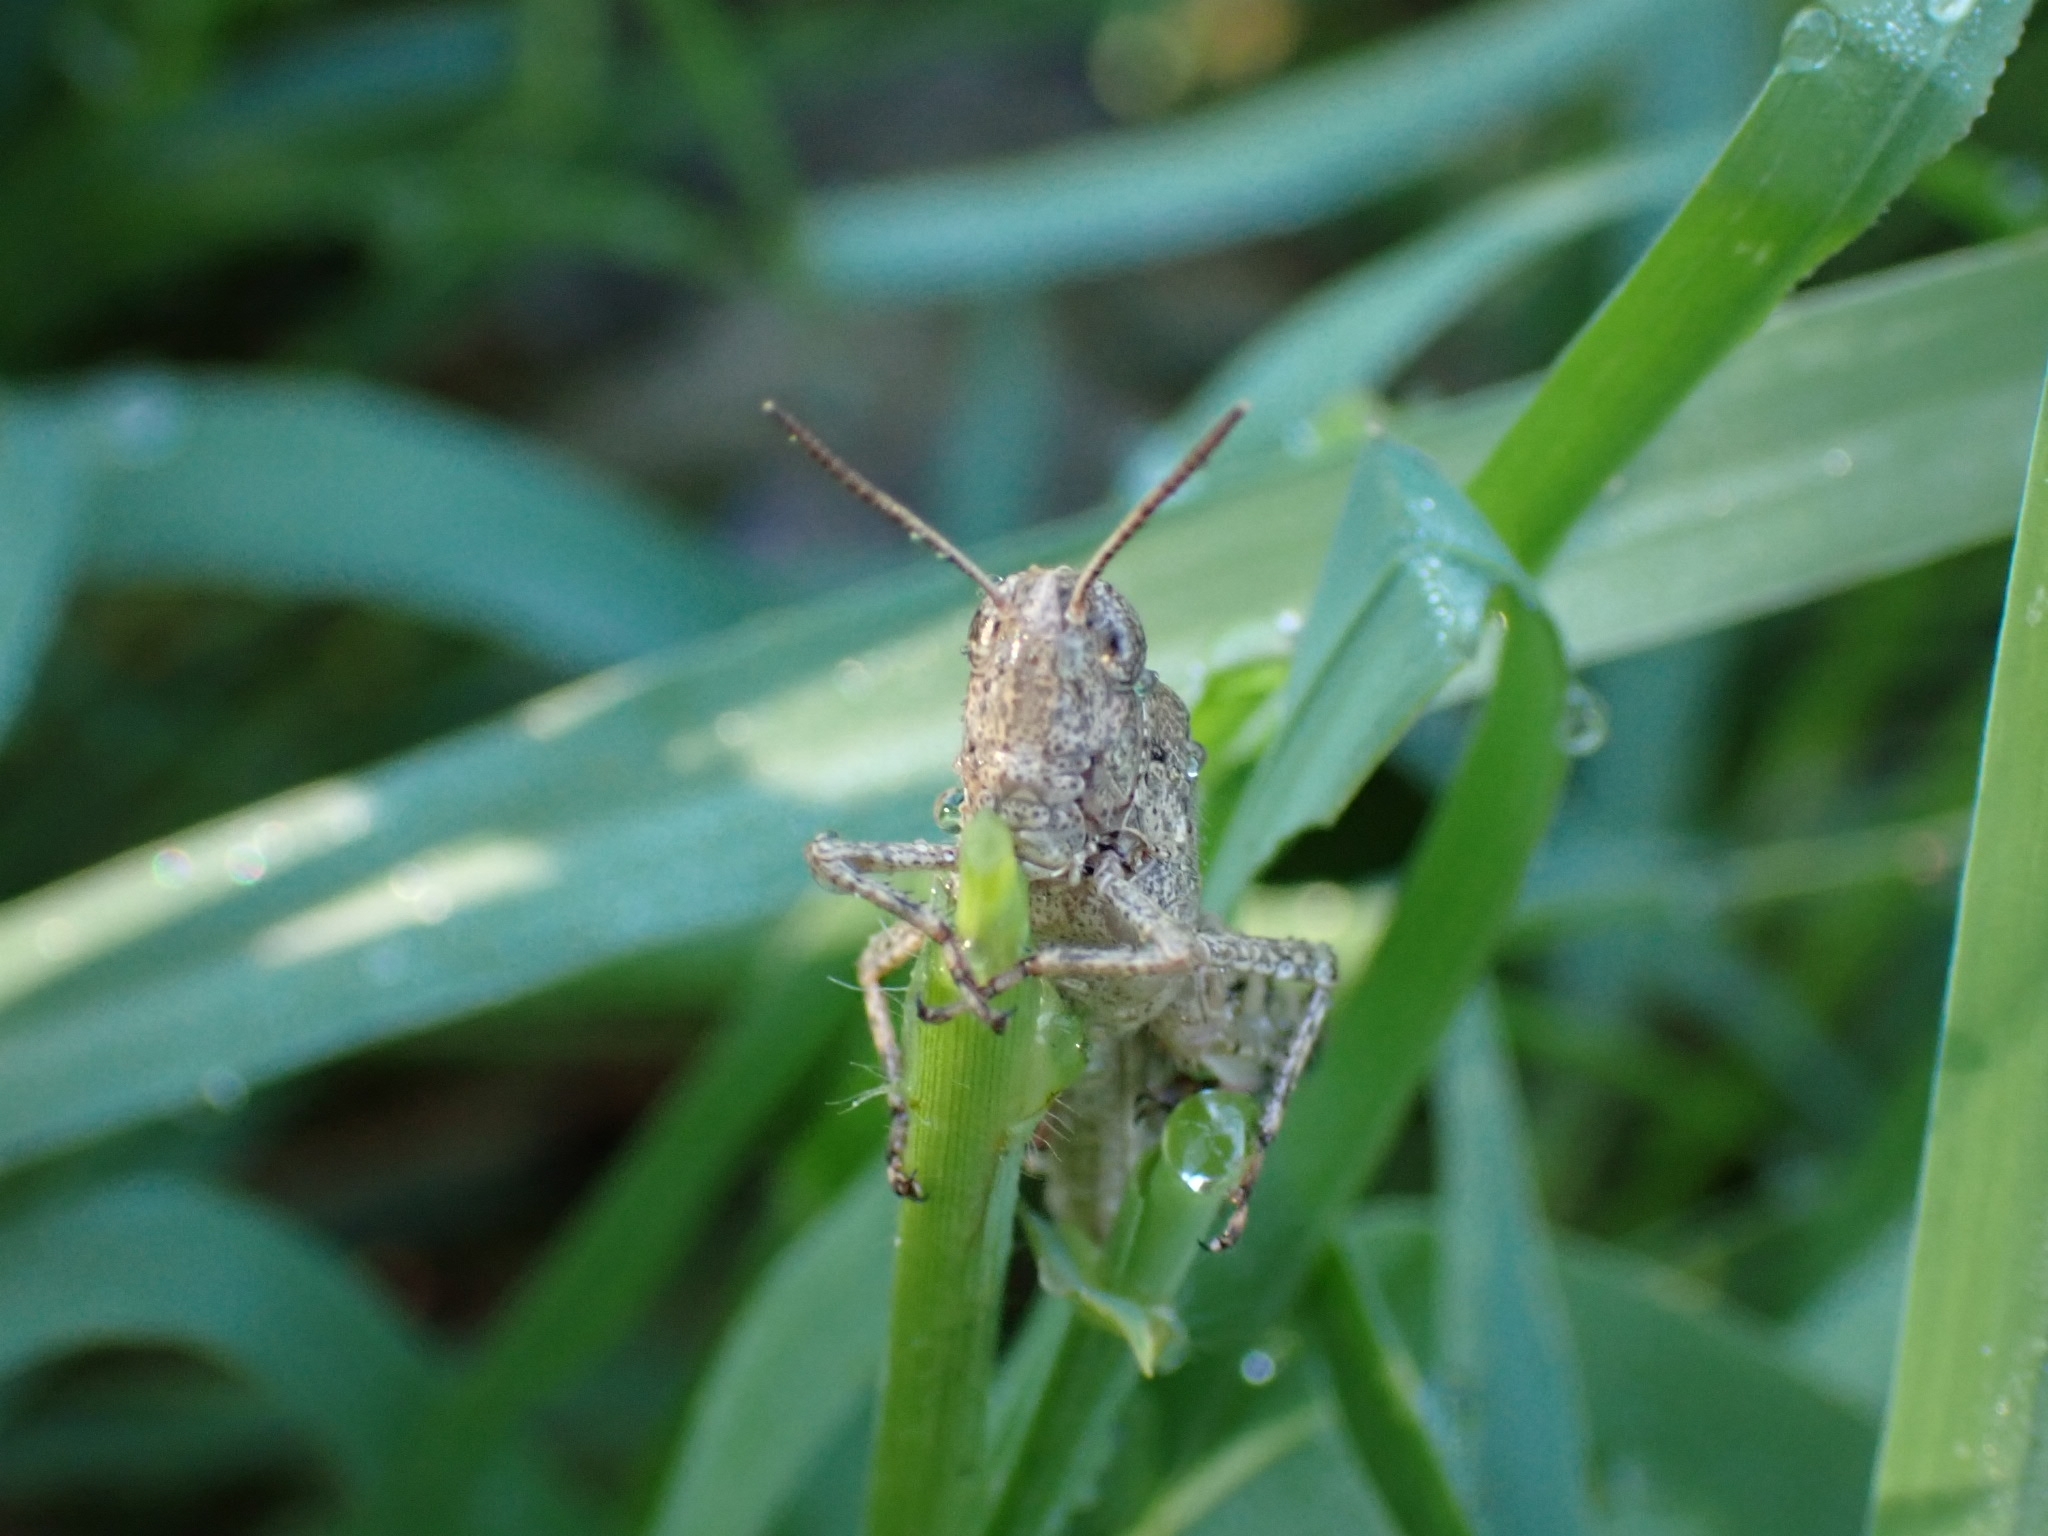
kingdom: Animalia
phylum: Arthropoda
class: Insecta
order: Orthoptera
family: Acrididae
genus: Aiolopus
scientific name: Aiolopus strepens
